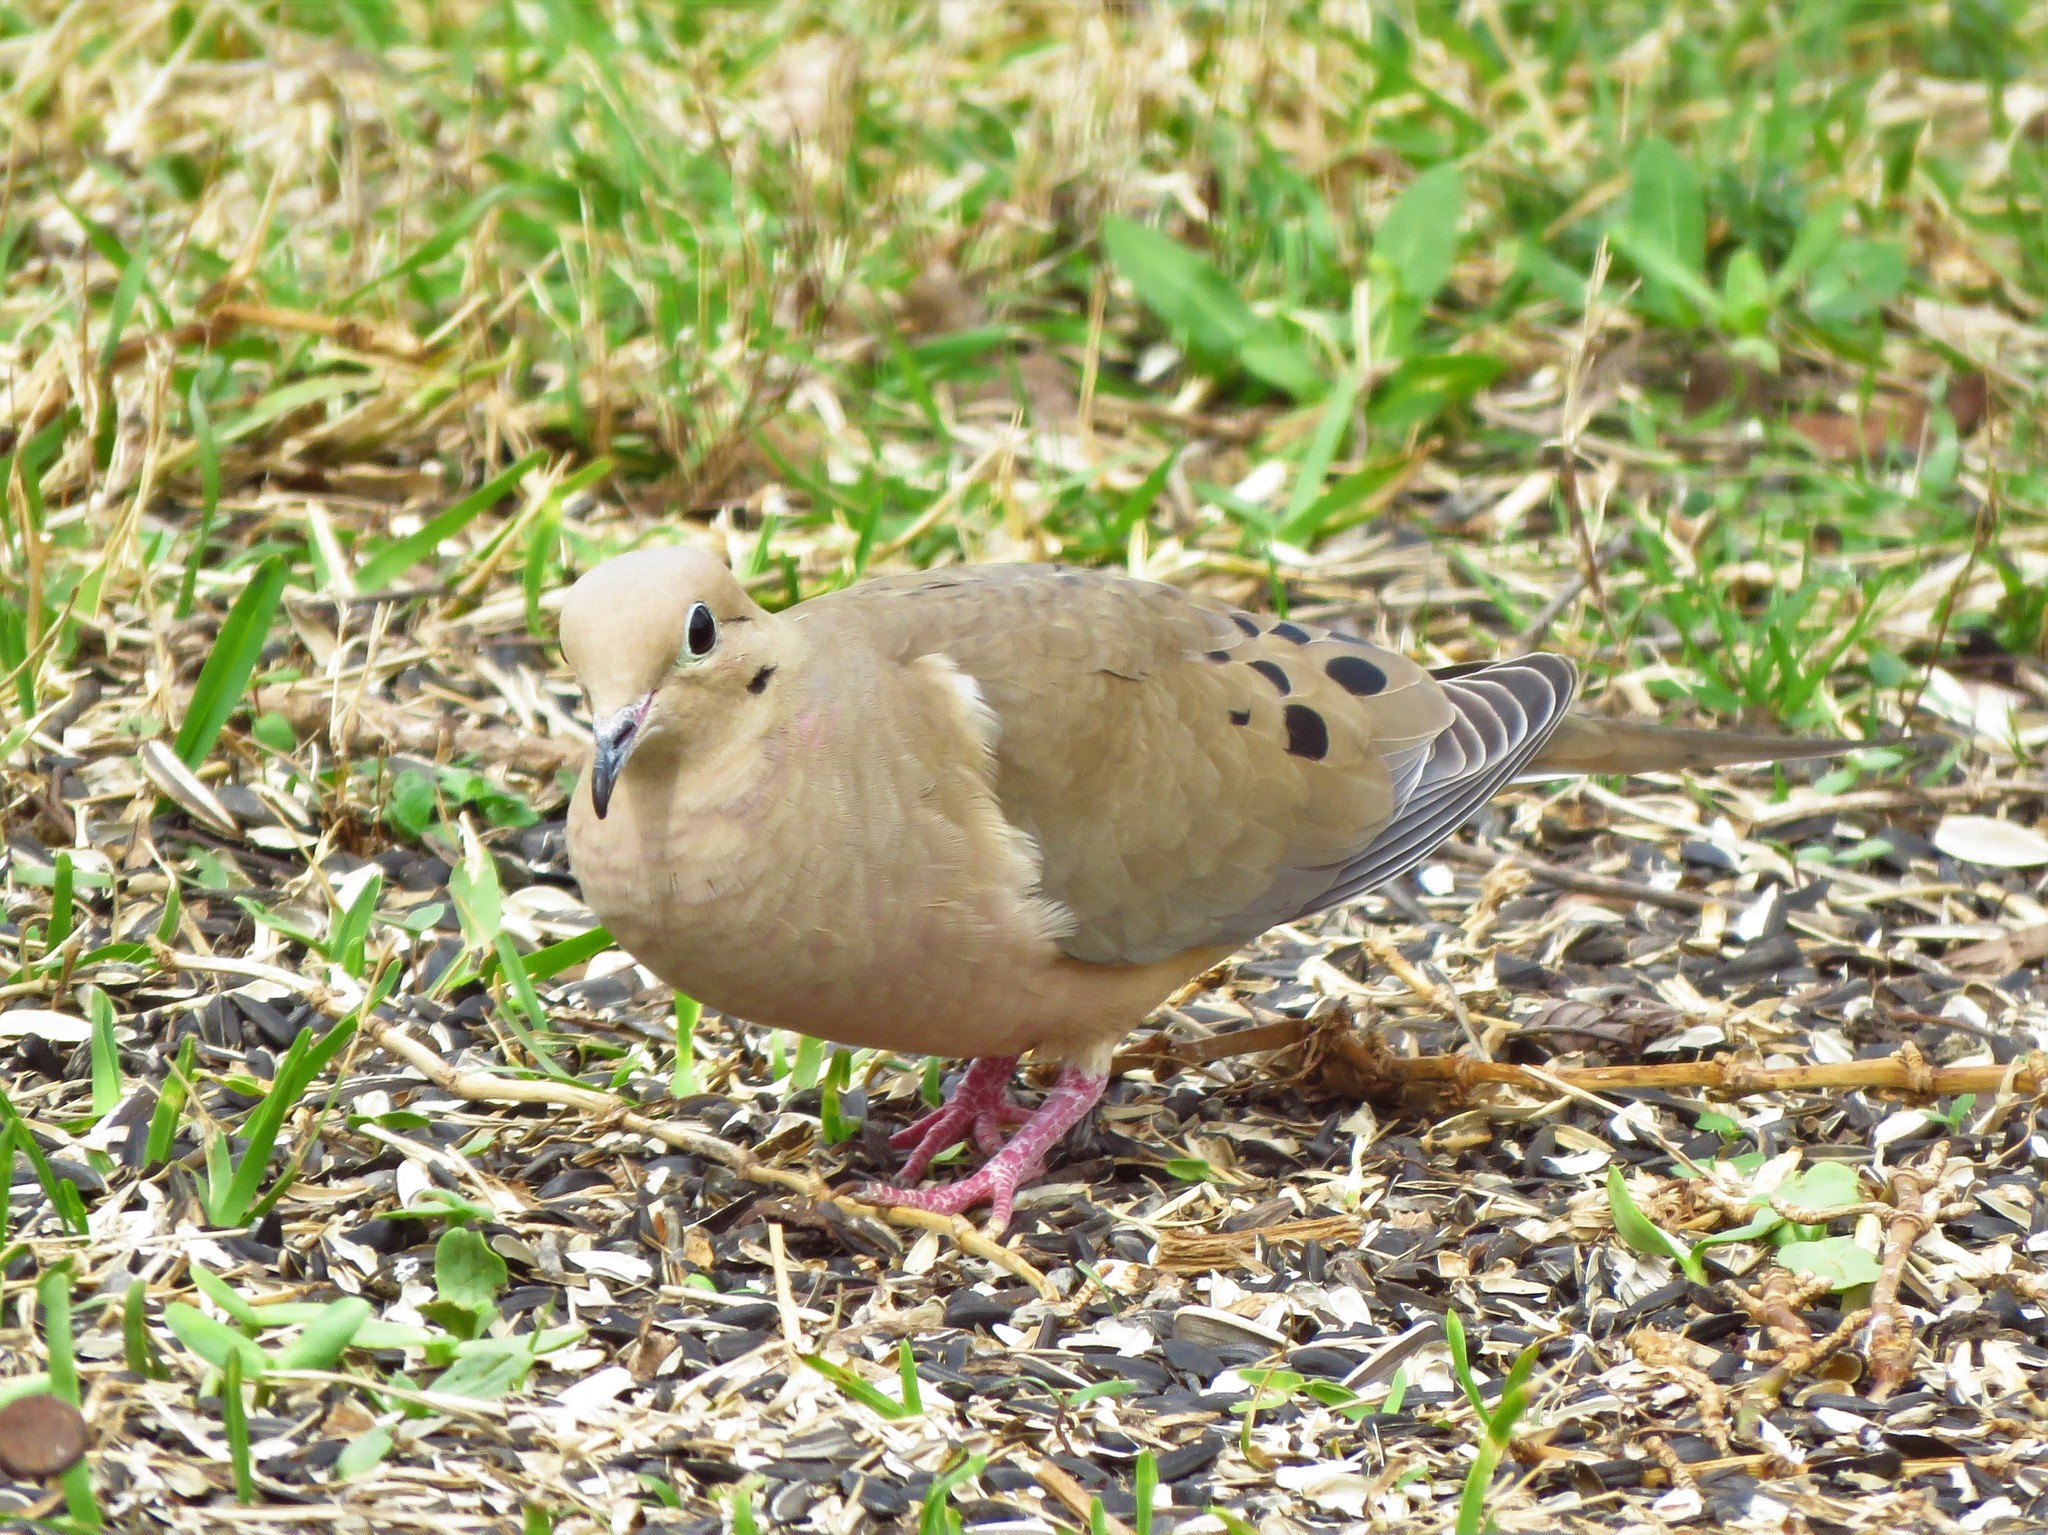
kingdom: Animalia
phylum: Chordata
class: Aves
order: Columbiformes
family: Columbidae
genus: Zenaida
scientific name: Zenaida macroura
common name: Mourning dove
